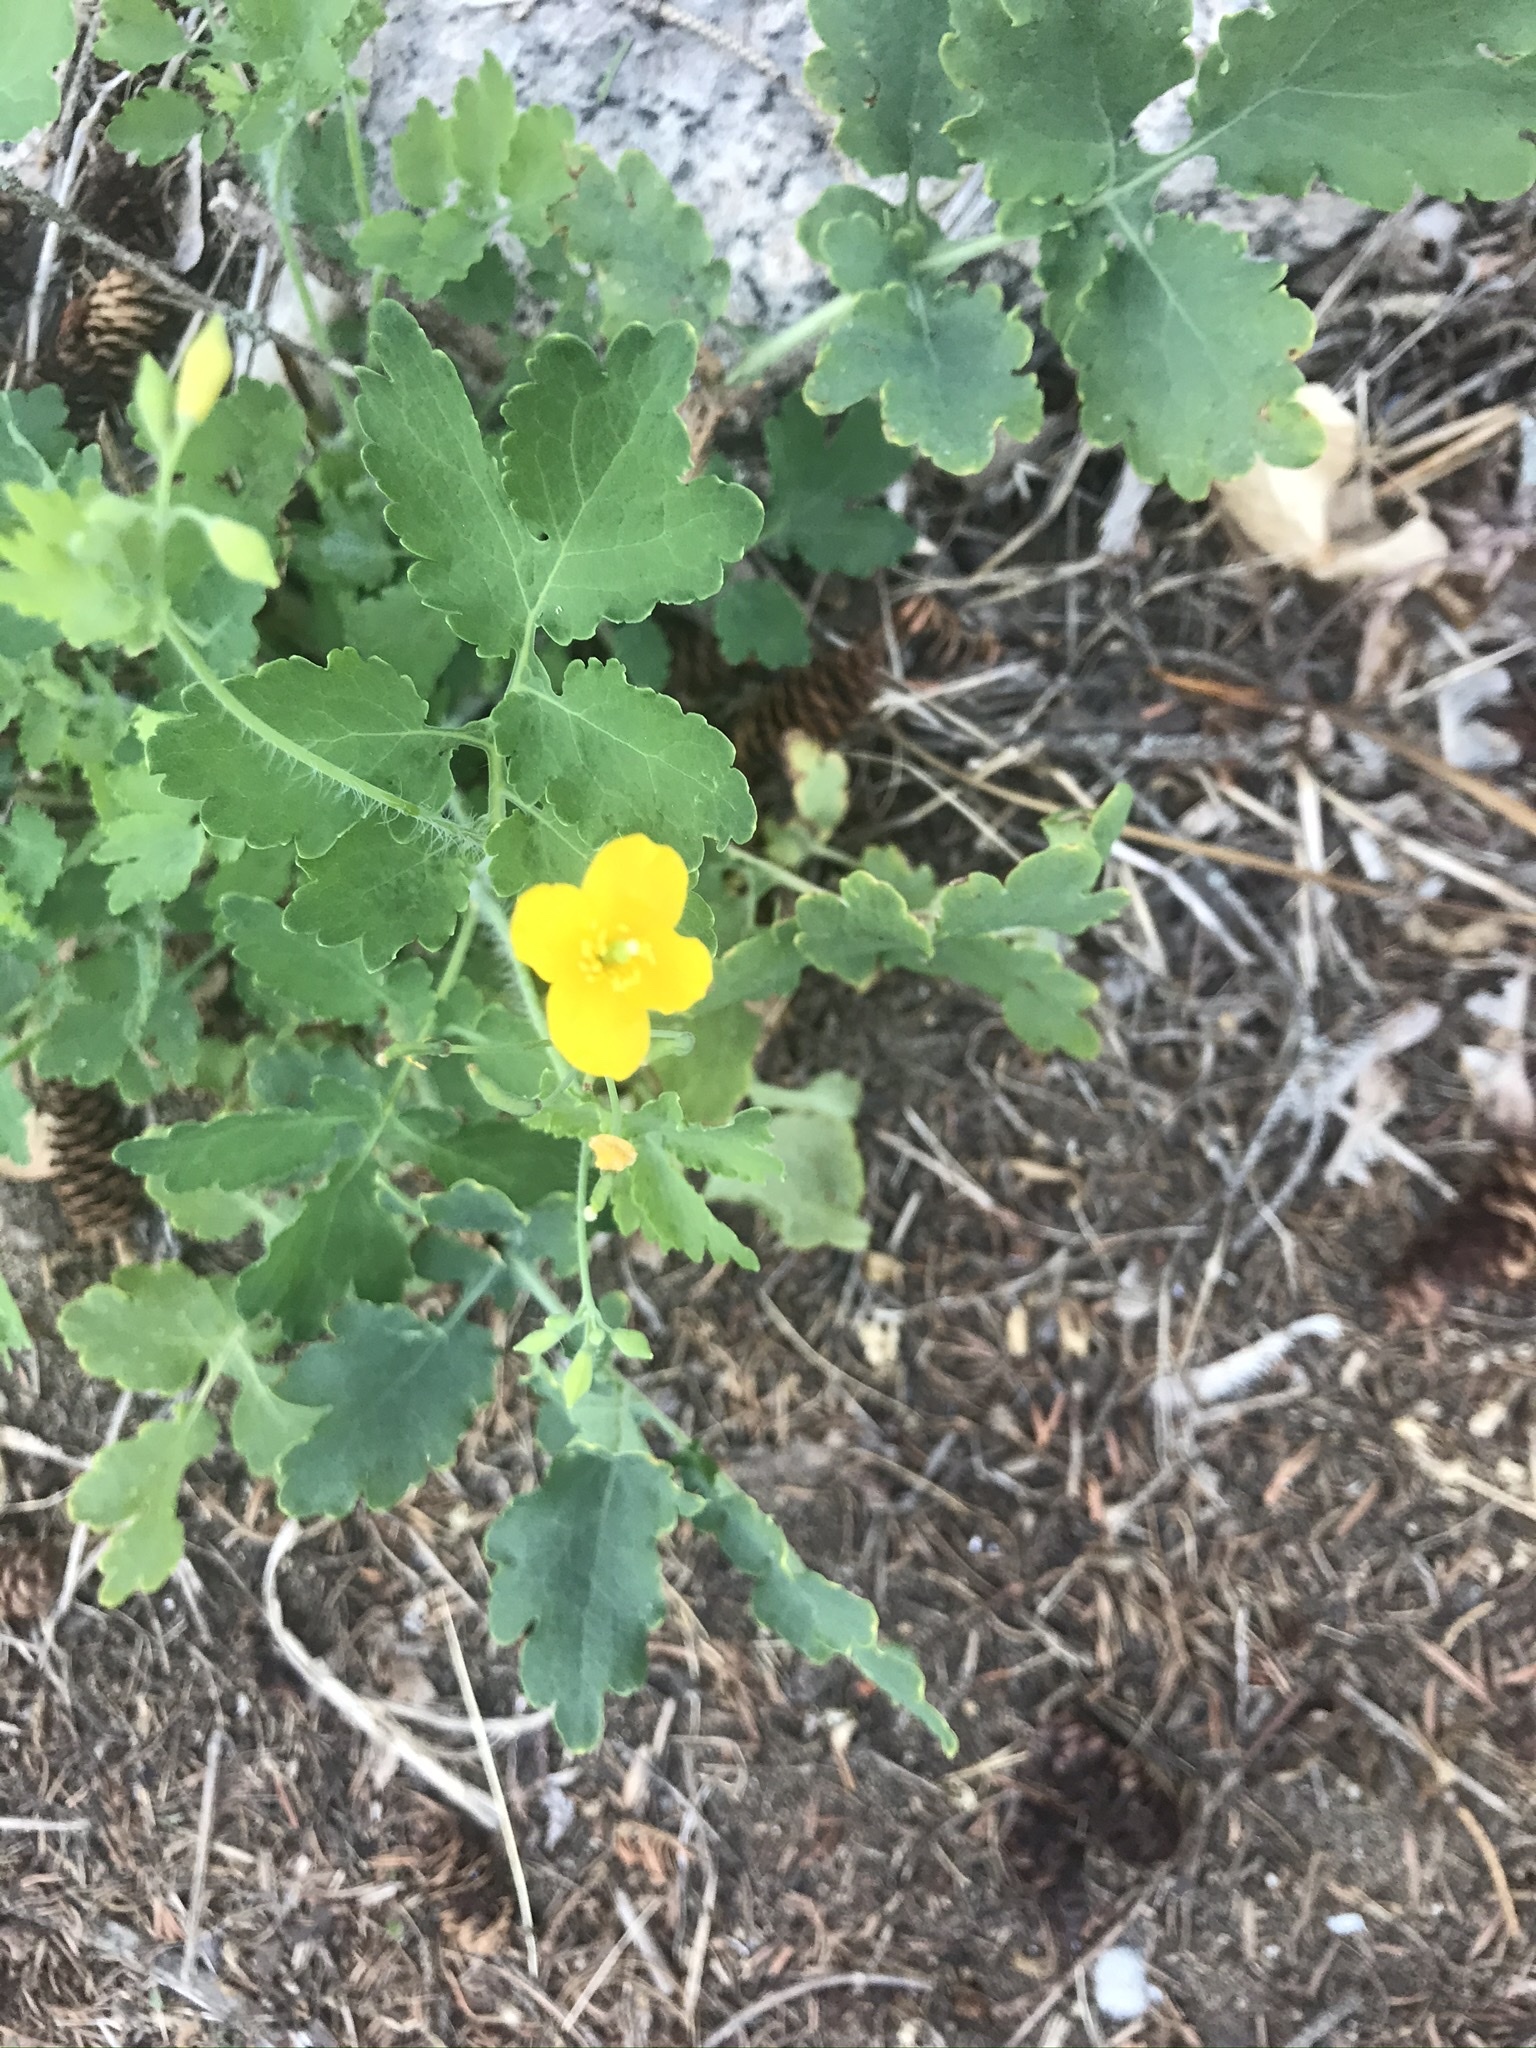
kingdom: Plantae
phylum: Tracheophyta
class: Magnoliopsida
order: Ranunculales
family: Papaveraceae
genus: Chelidonium
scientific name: Chelidonium majus
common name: Greater celandine
